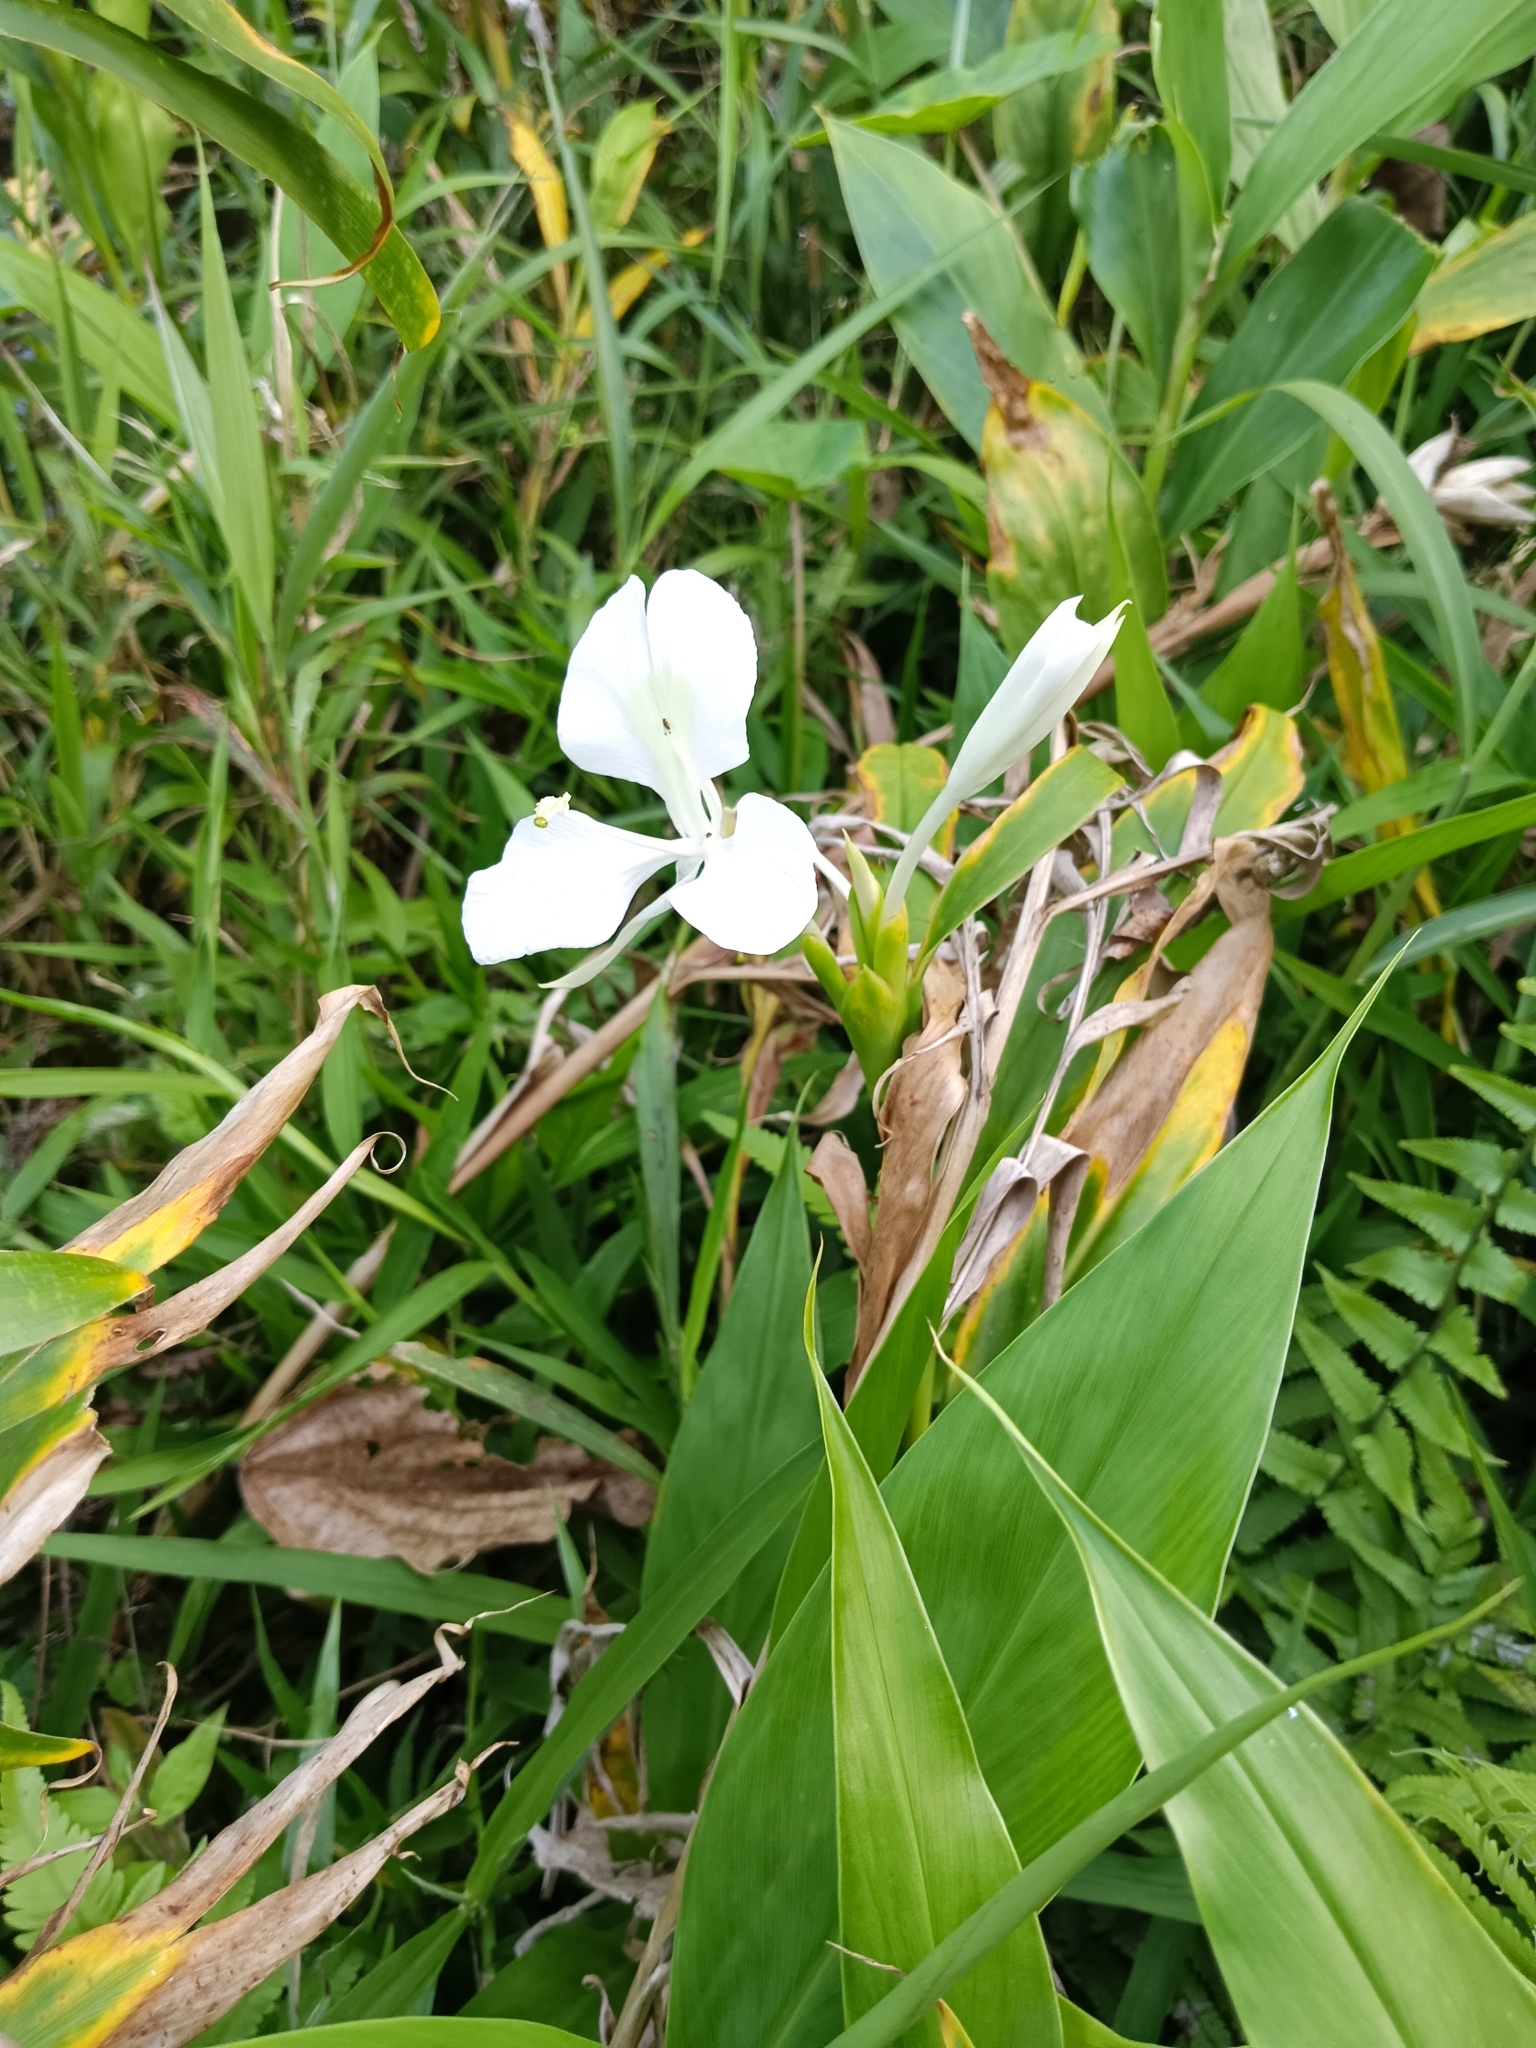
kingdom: Plantae
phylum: Tracheophyta
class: Liliopsida
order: Zingiberales
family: Zingiberaceae
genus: Hedychium
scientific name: Hedychium coronarium
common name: White garland-lily
